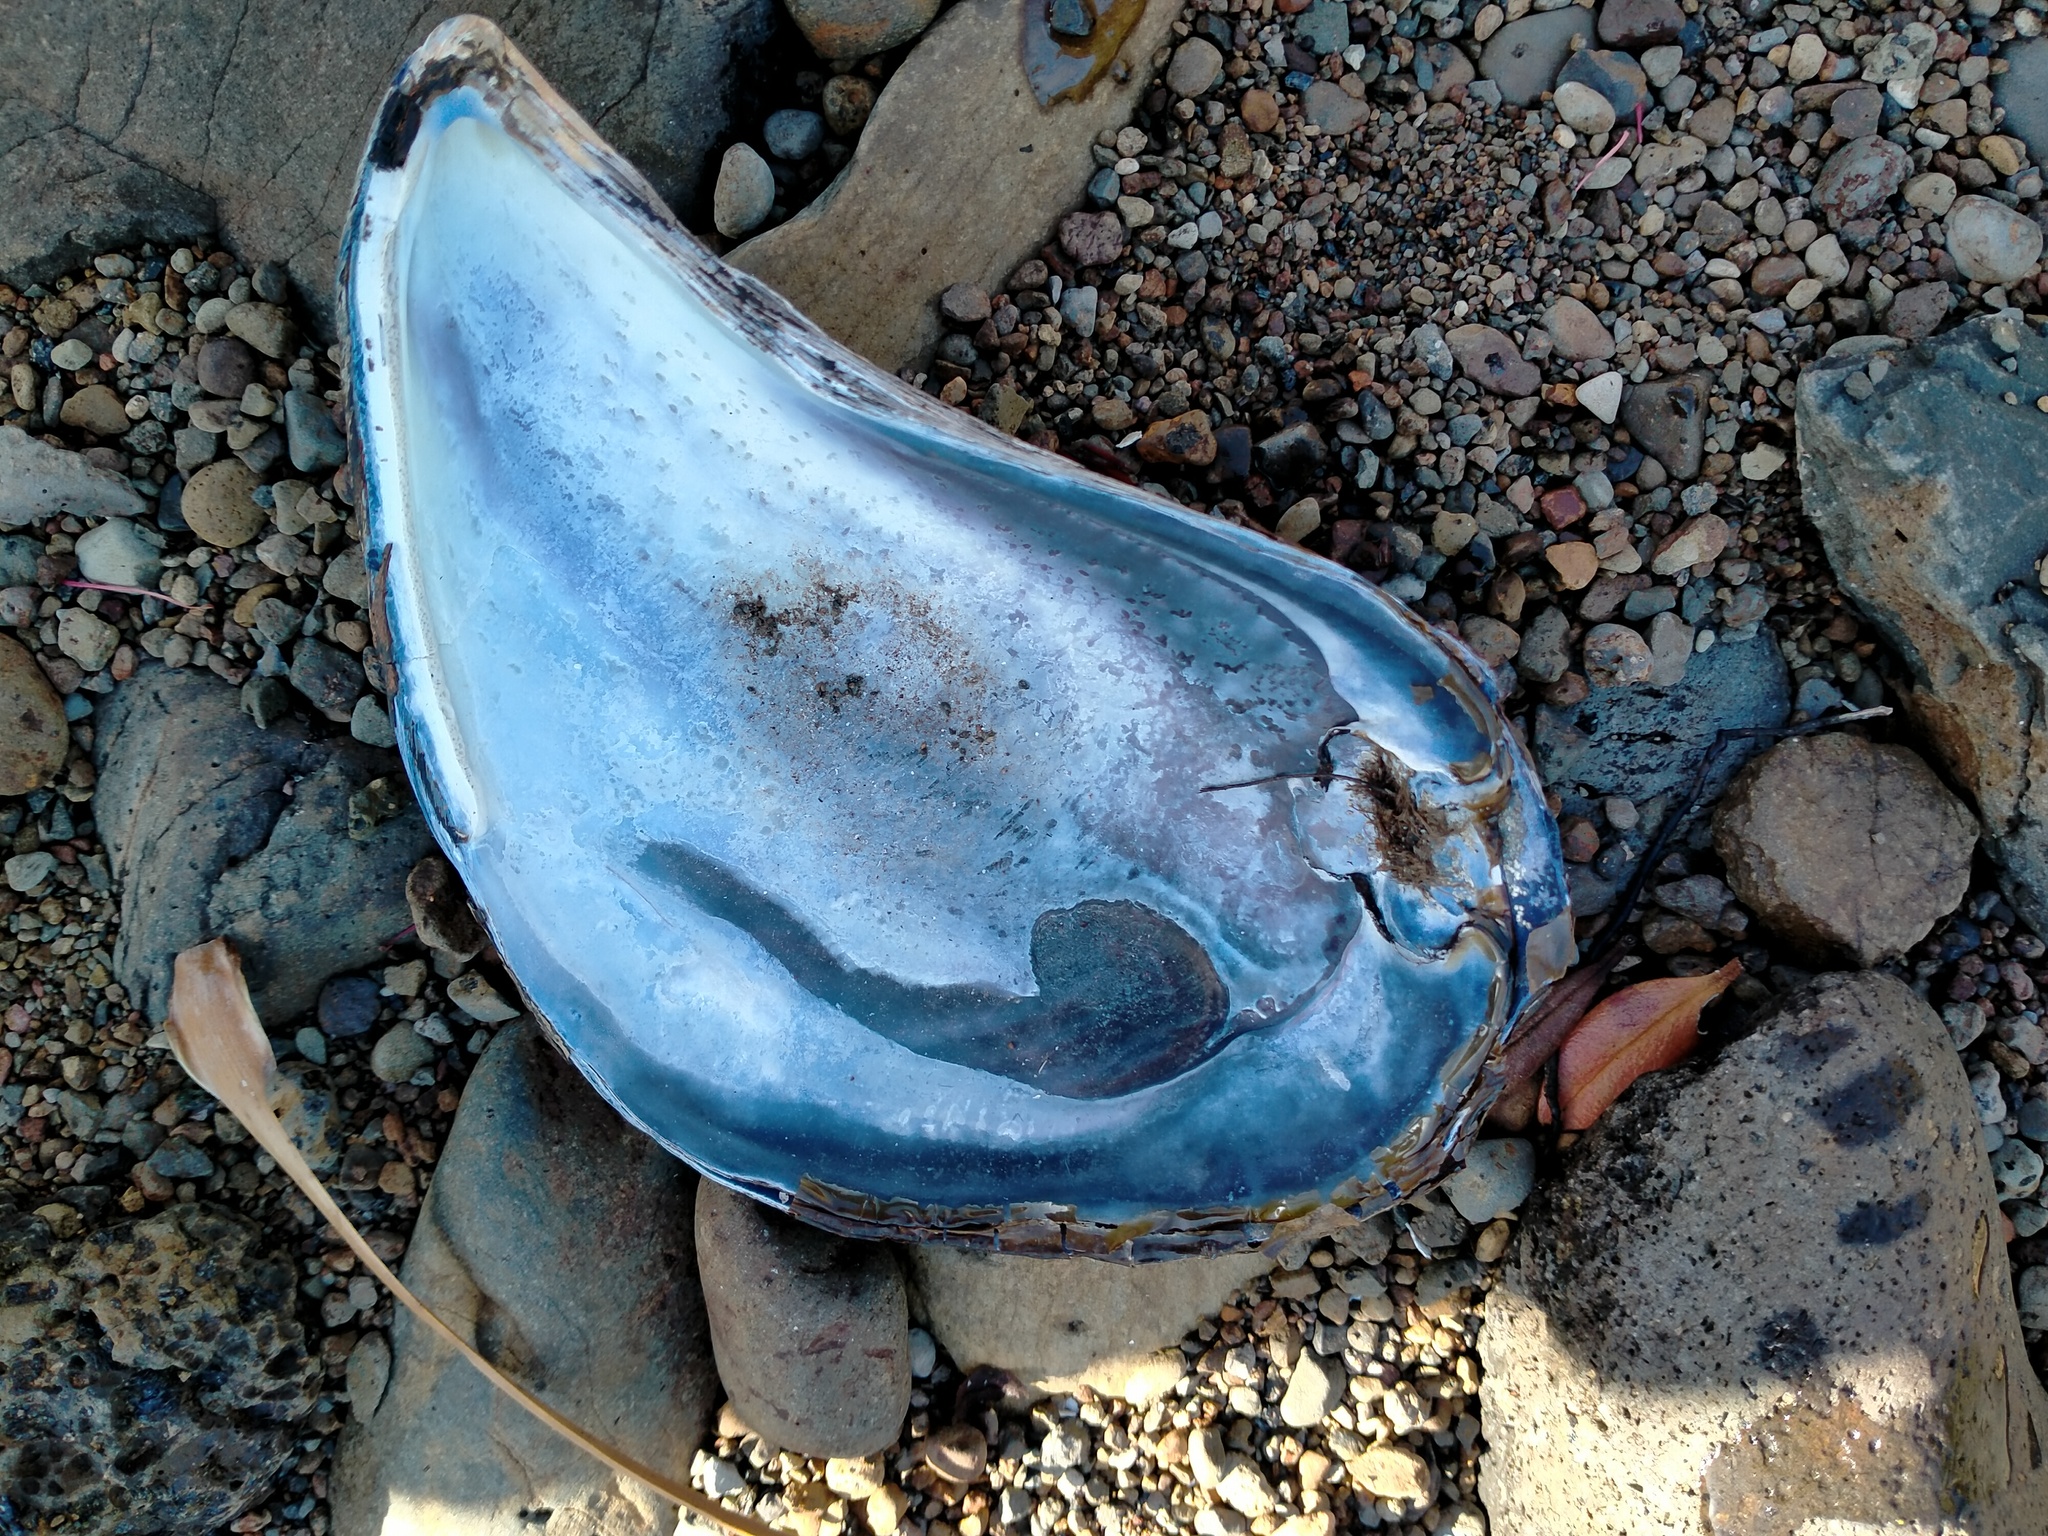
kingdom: Animalia
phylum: Mollusca
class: Bivalvia
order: Mytilida
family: Mytilidae
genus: Mytilus
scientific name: Mytilus planulatus
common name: Australian mussel
